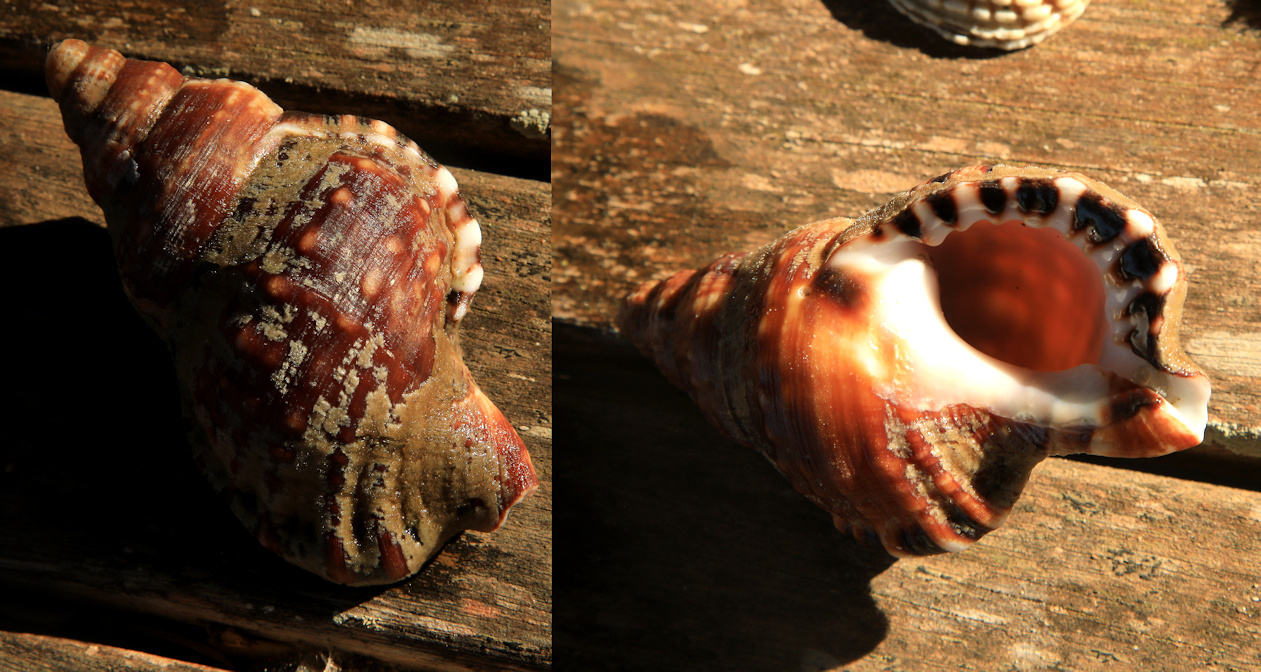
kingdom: Animalia
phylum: Mollusca
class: Gastropoda
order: Littorinimorpha
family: Ranellidae
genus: Ranella
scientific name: Ranella gemmifera
